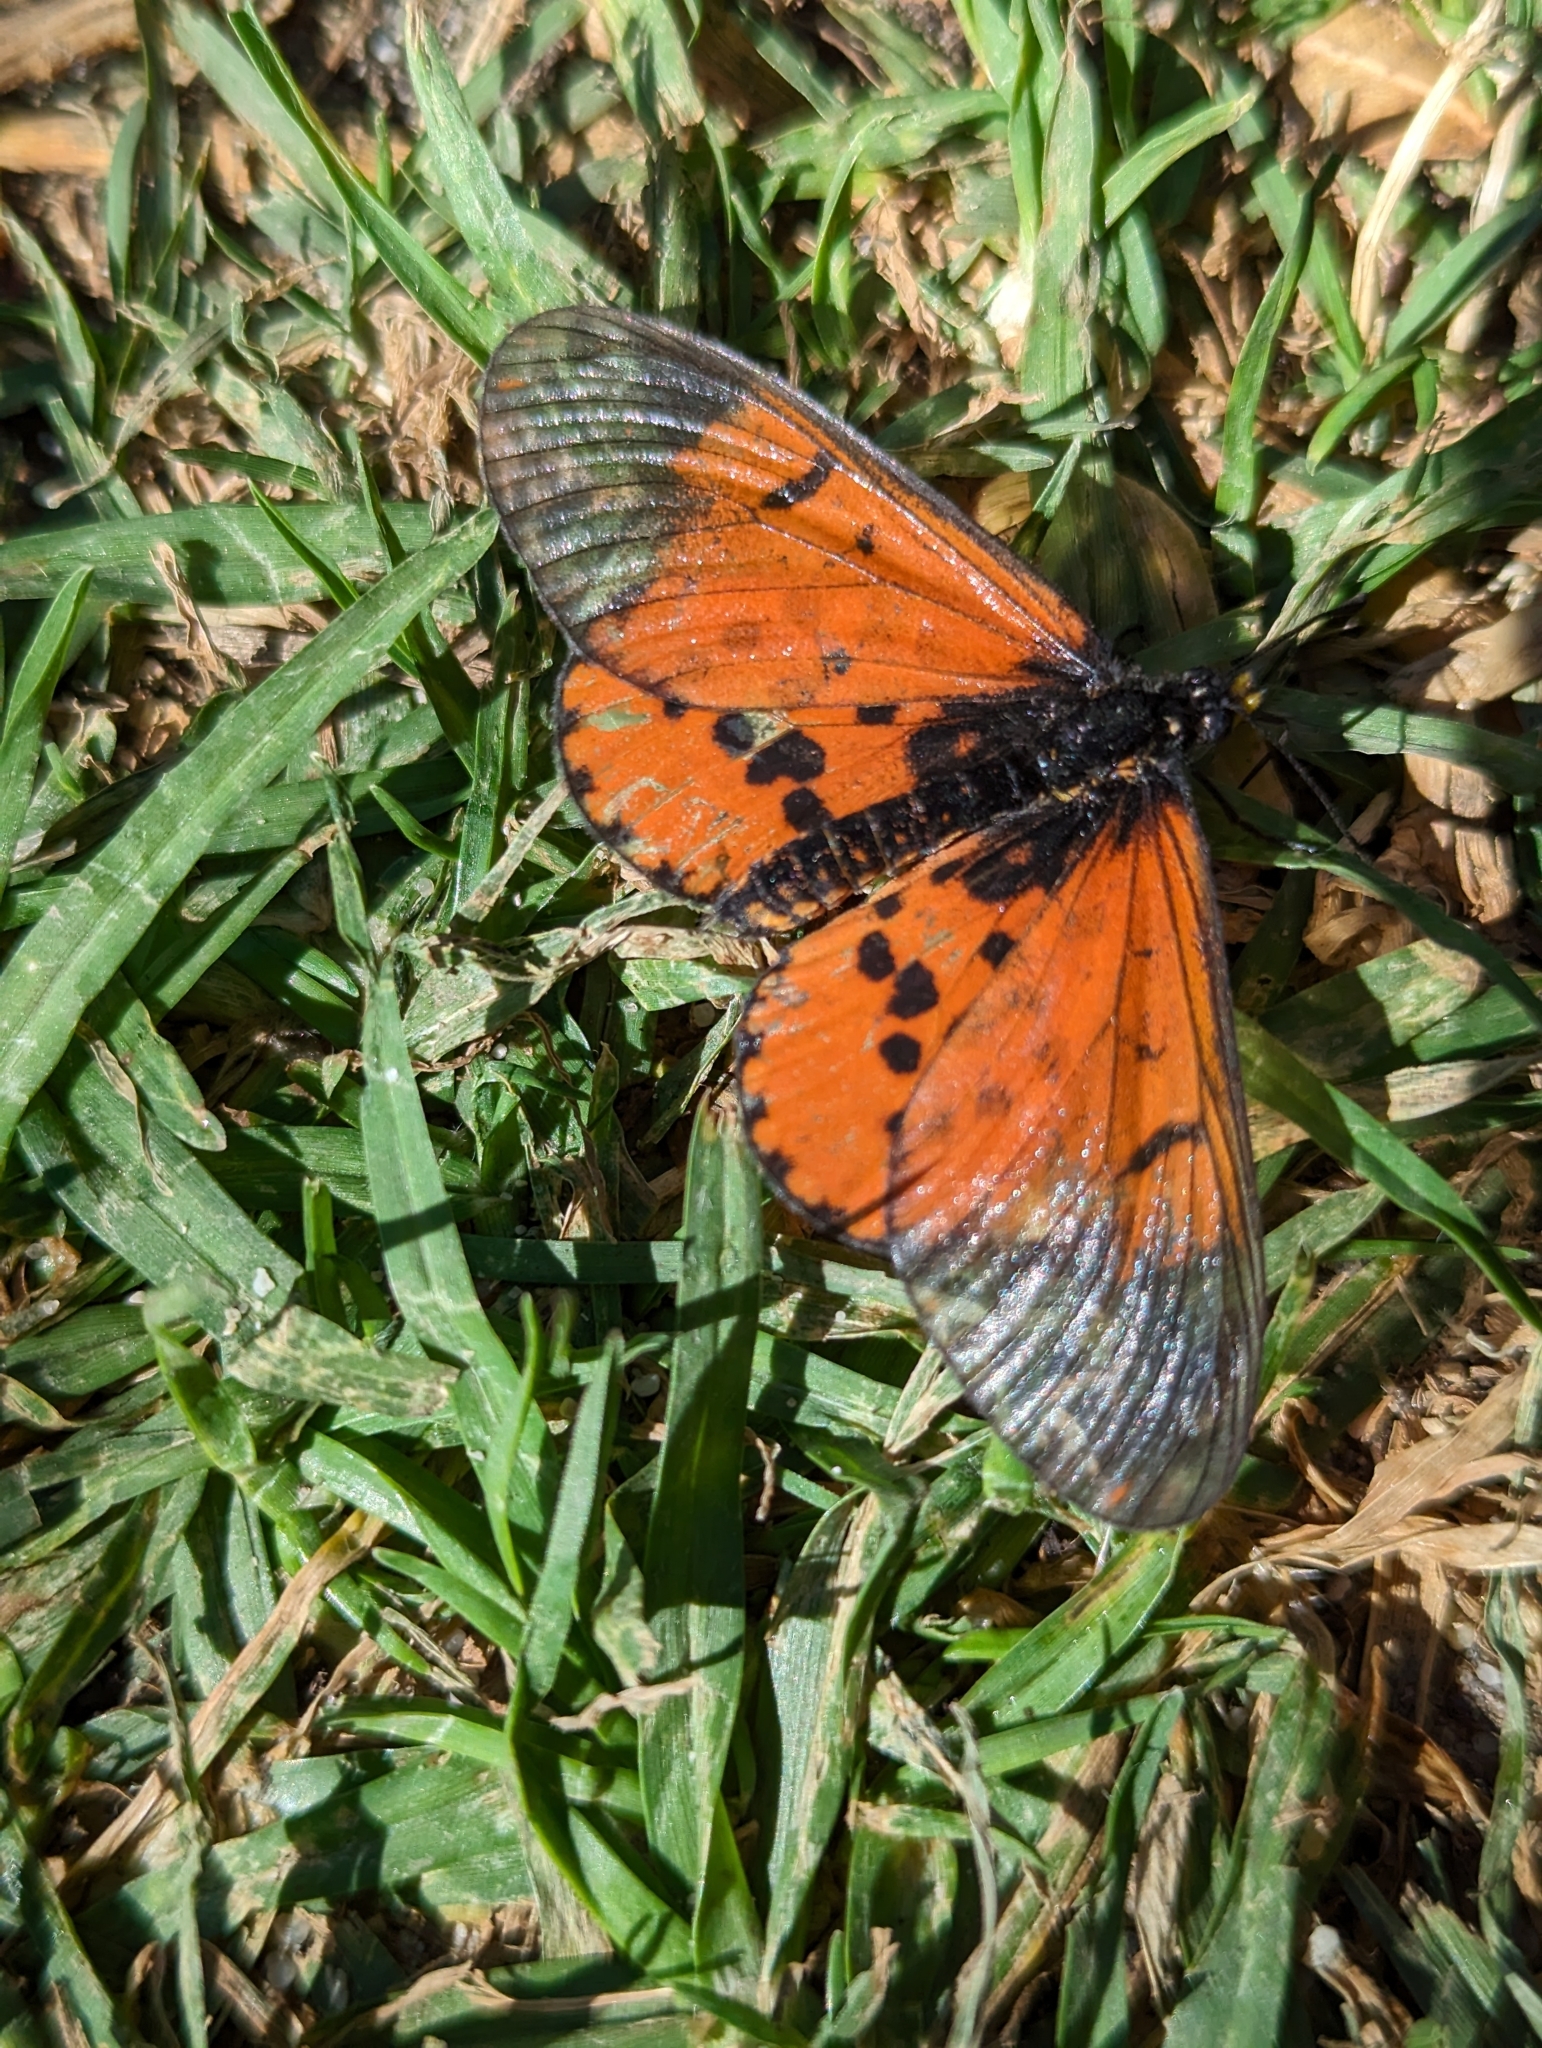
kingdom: Animalia
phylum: Arthropoda
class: Insecta
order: Lepidoptera
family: Nymphalidae
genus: Acraea
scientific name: Acraea horta
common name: Garden acraea
